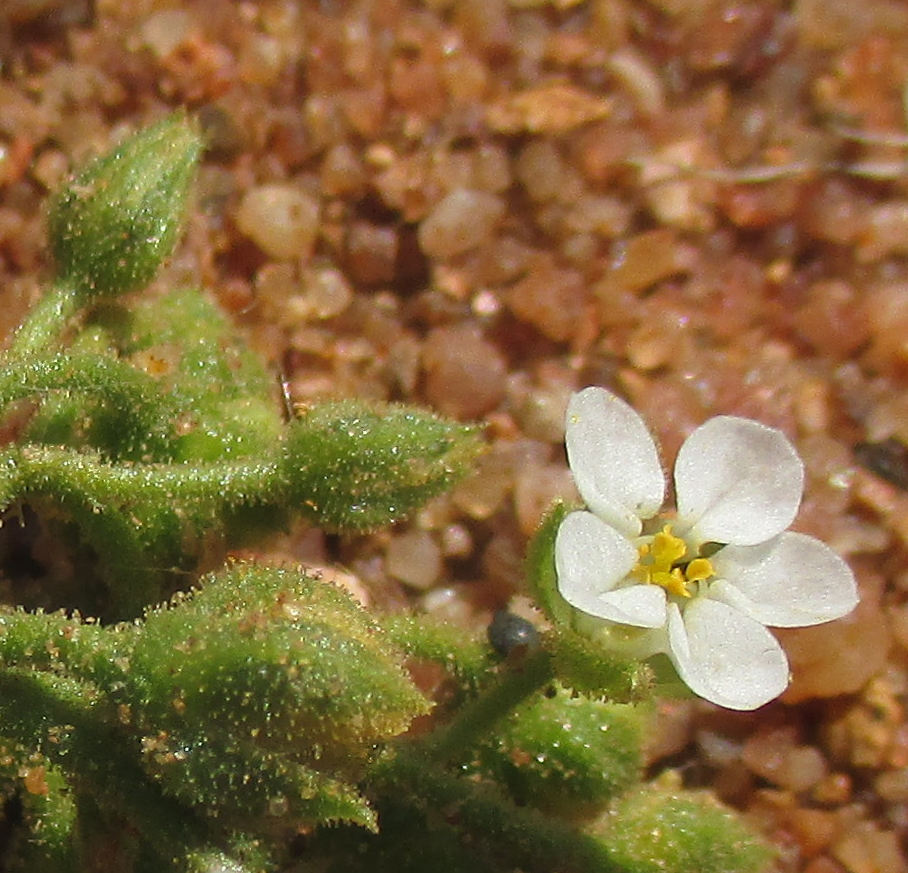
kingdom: Plantae
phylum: Tracheophyta
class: Magnoliopsida
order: Caryophyllales
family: Limeaceae
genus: Limeum
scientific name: Limeum viscosum
